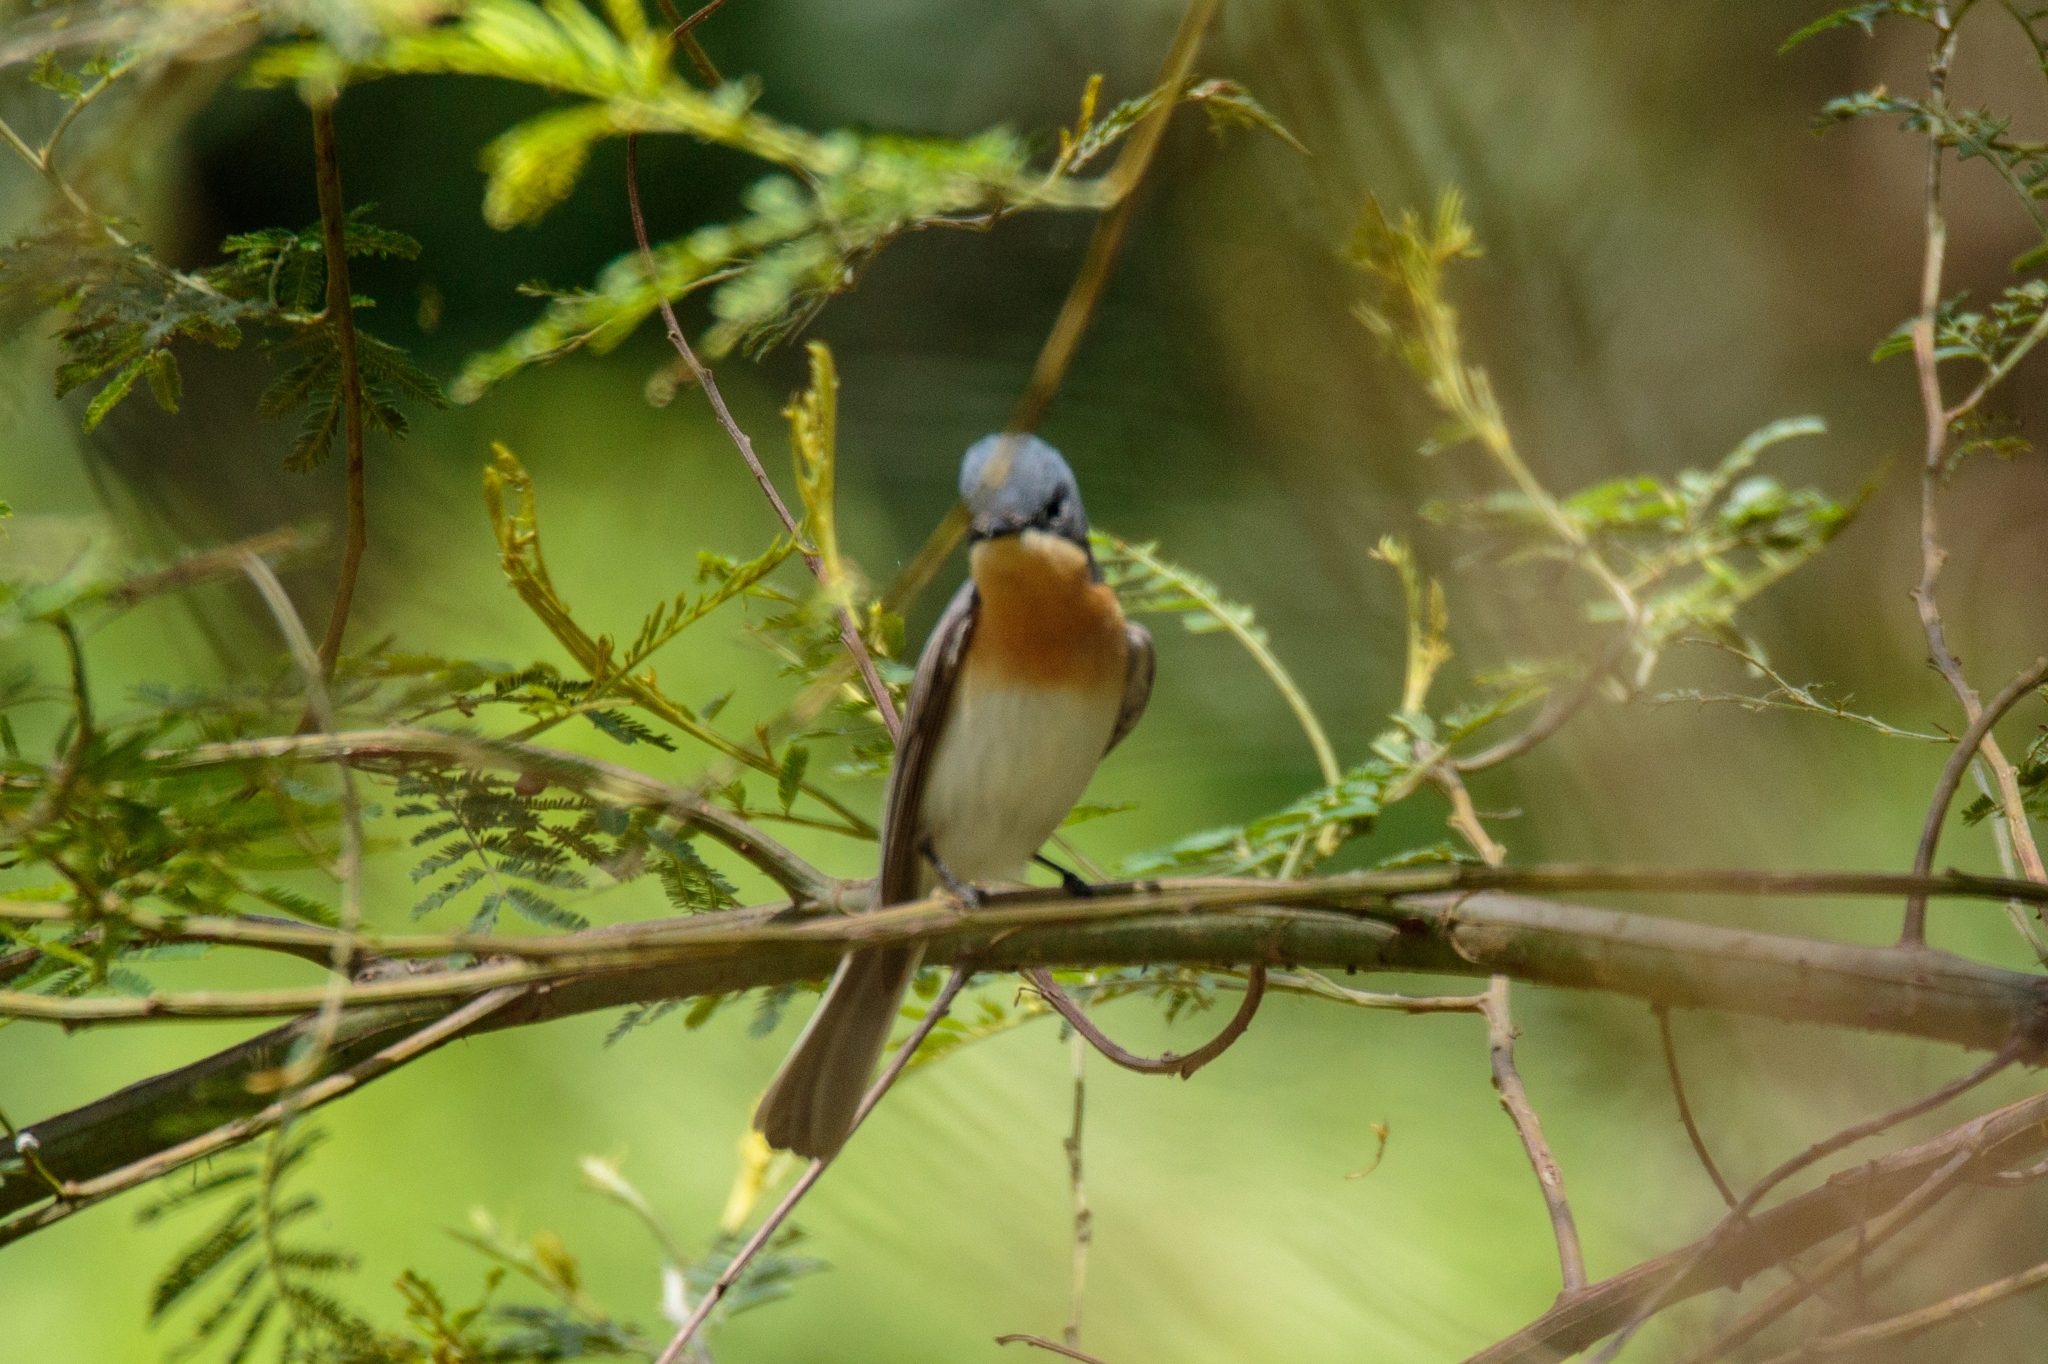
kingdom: Animalia
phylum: Chordata
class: Aves
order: Passeriformes
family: Monarchidae
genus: Myiagra
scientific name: Myiagra rubecula
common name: Leaden flycatcher
